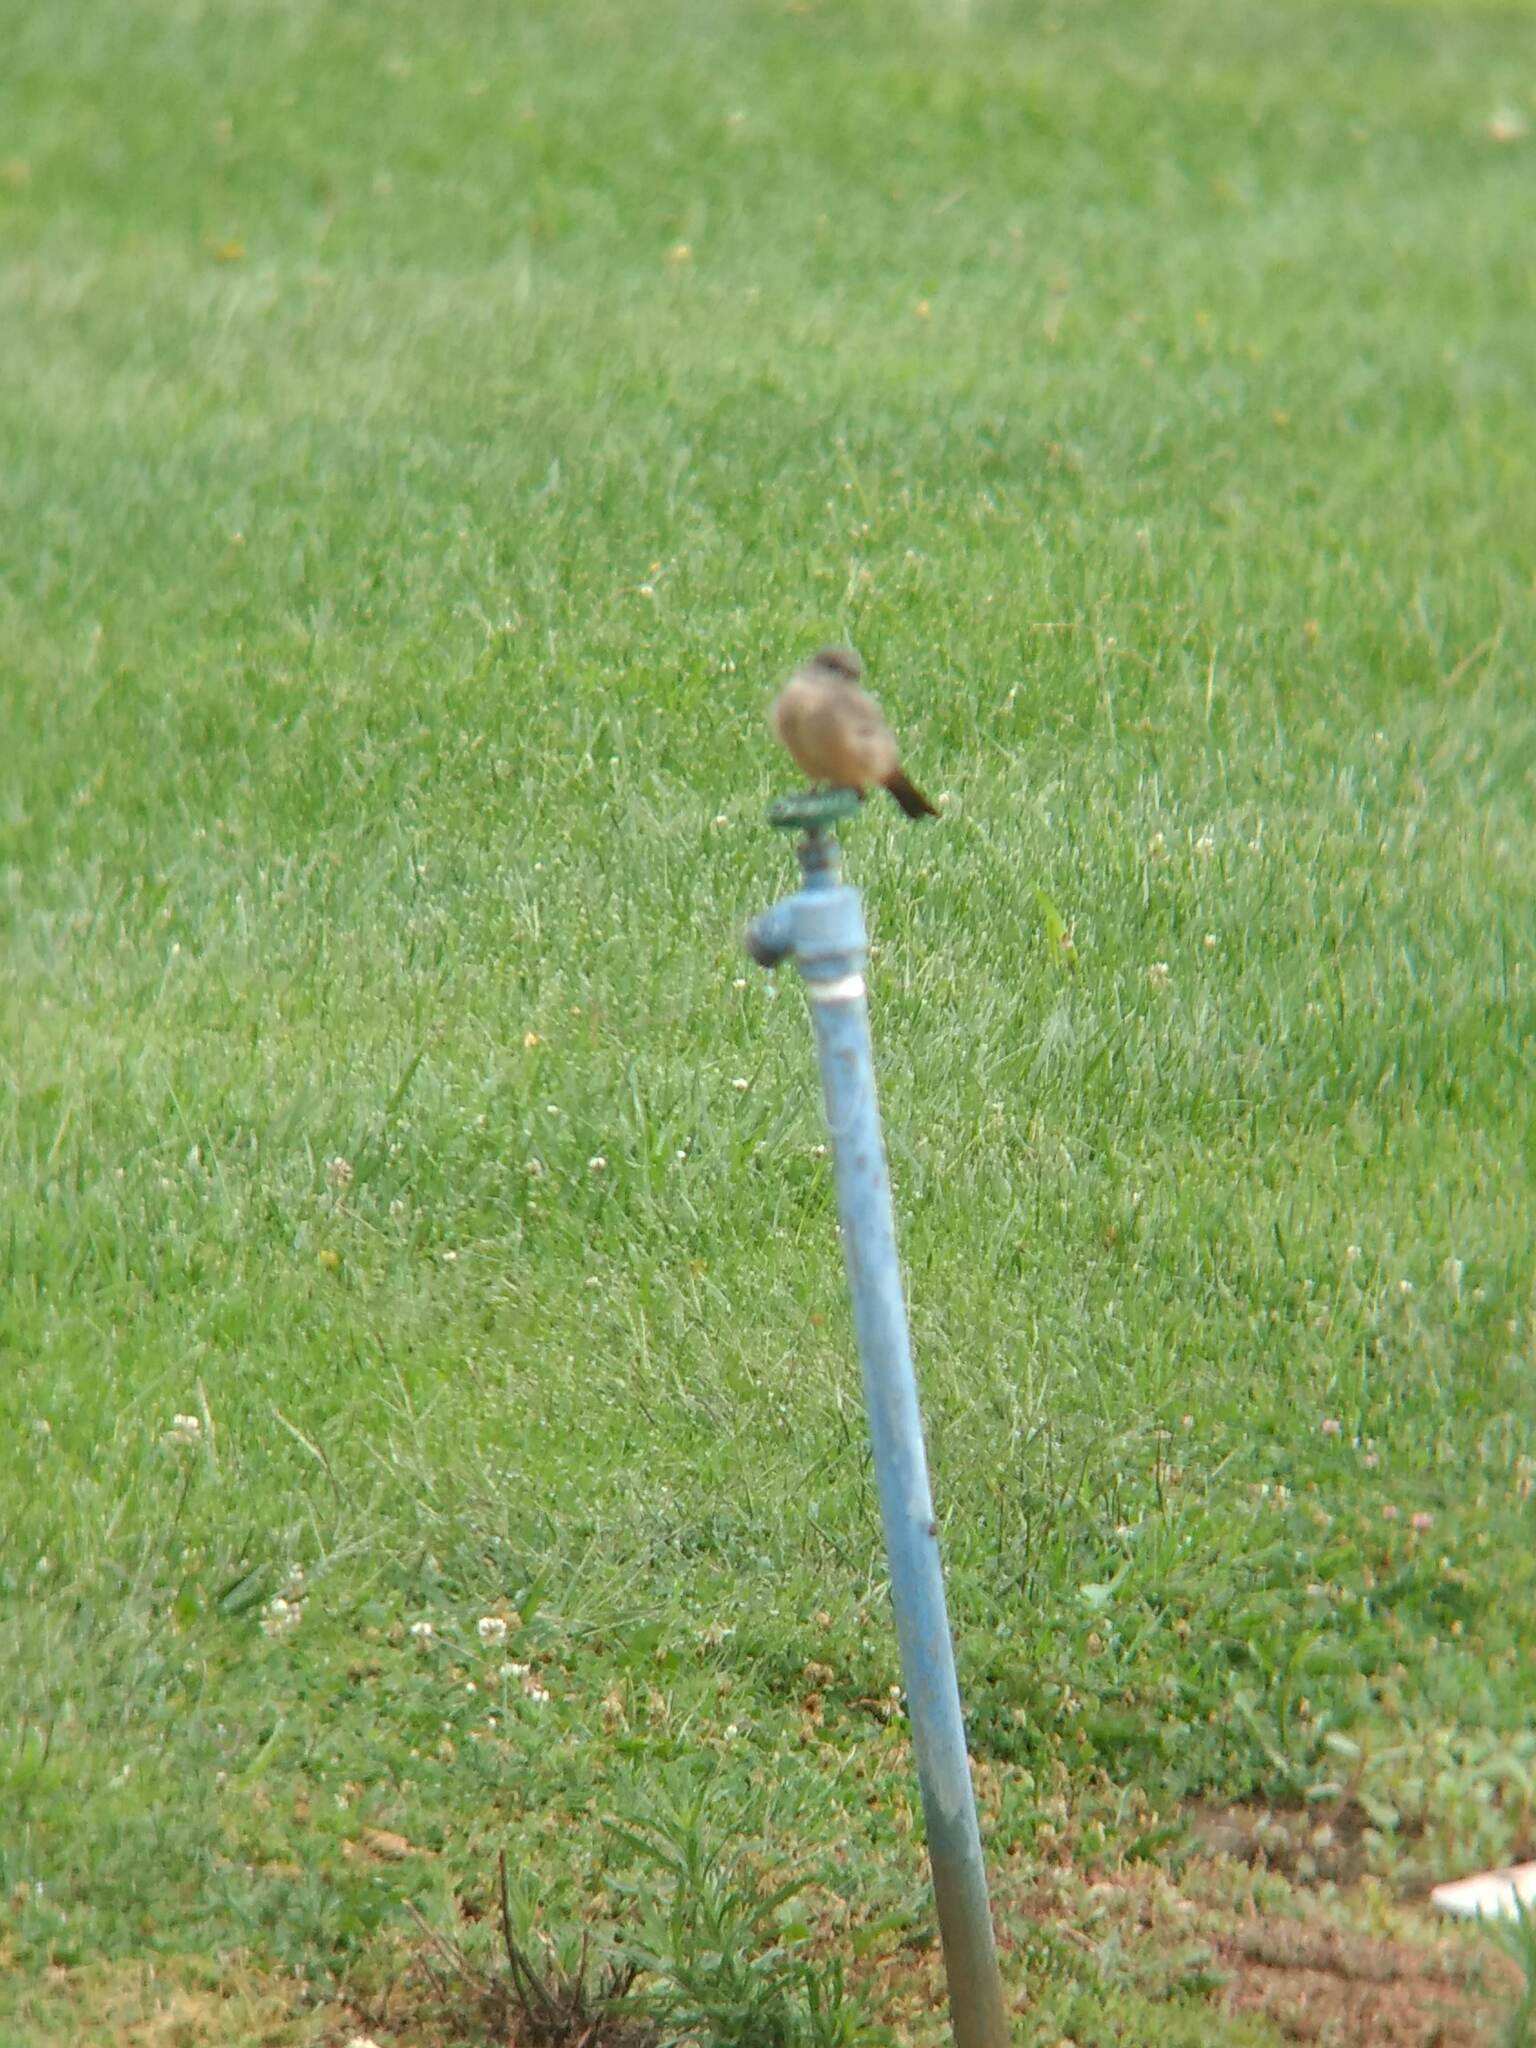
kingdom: Animalia
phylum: Chordata
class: Aves
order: Passeriformes
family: Tyrannidae
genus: Sayornis
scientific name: Sayornis saya
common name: Say's phoebe
